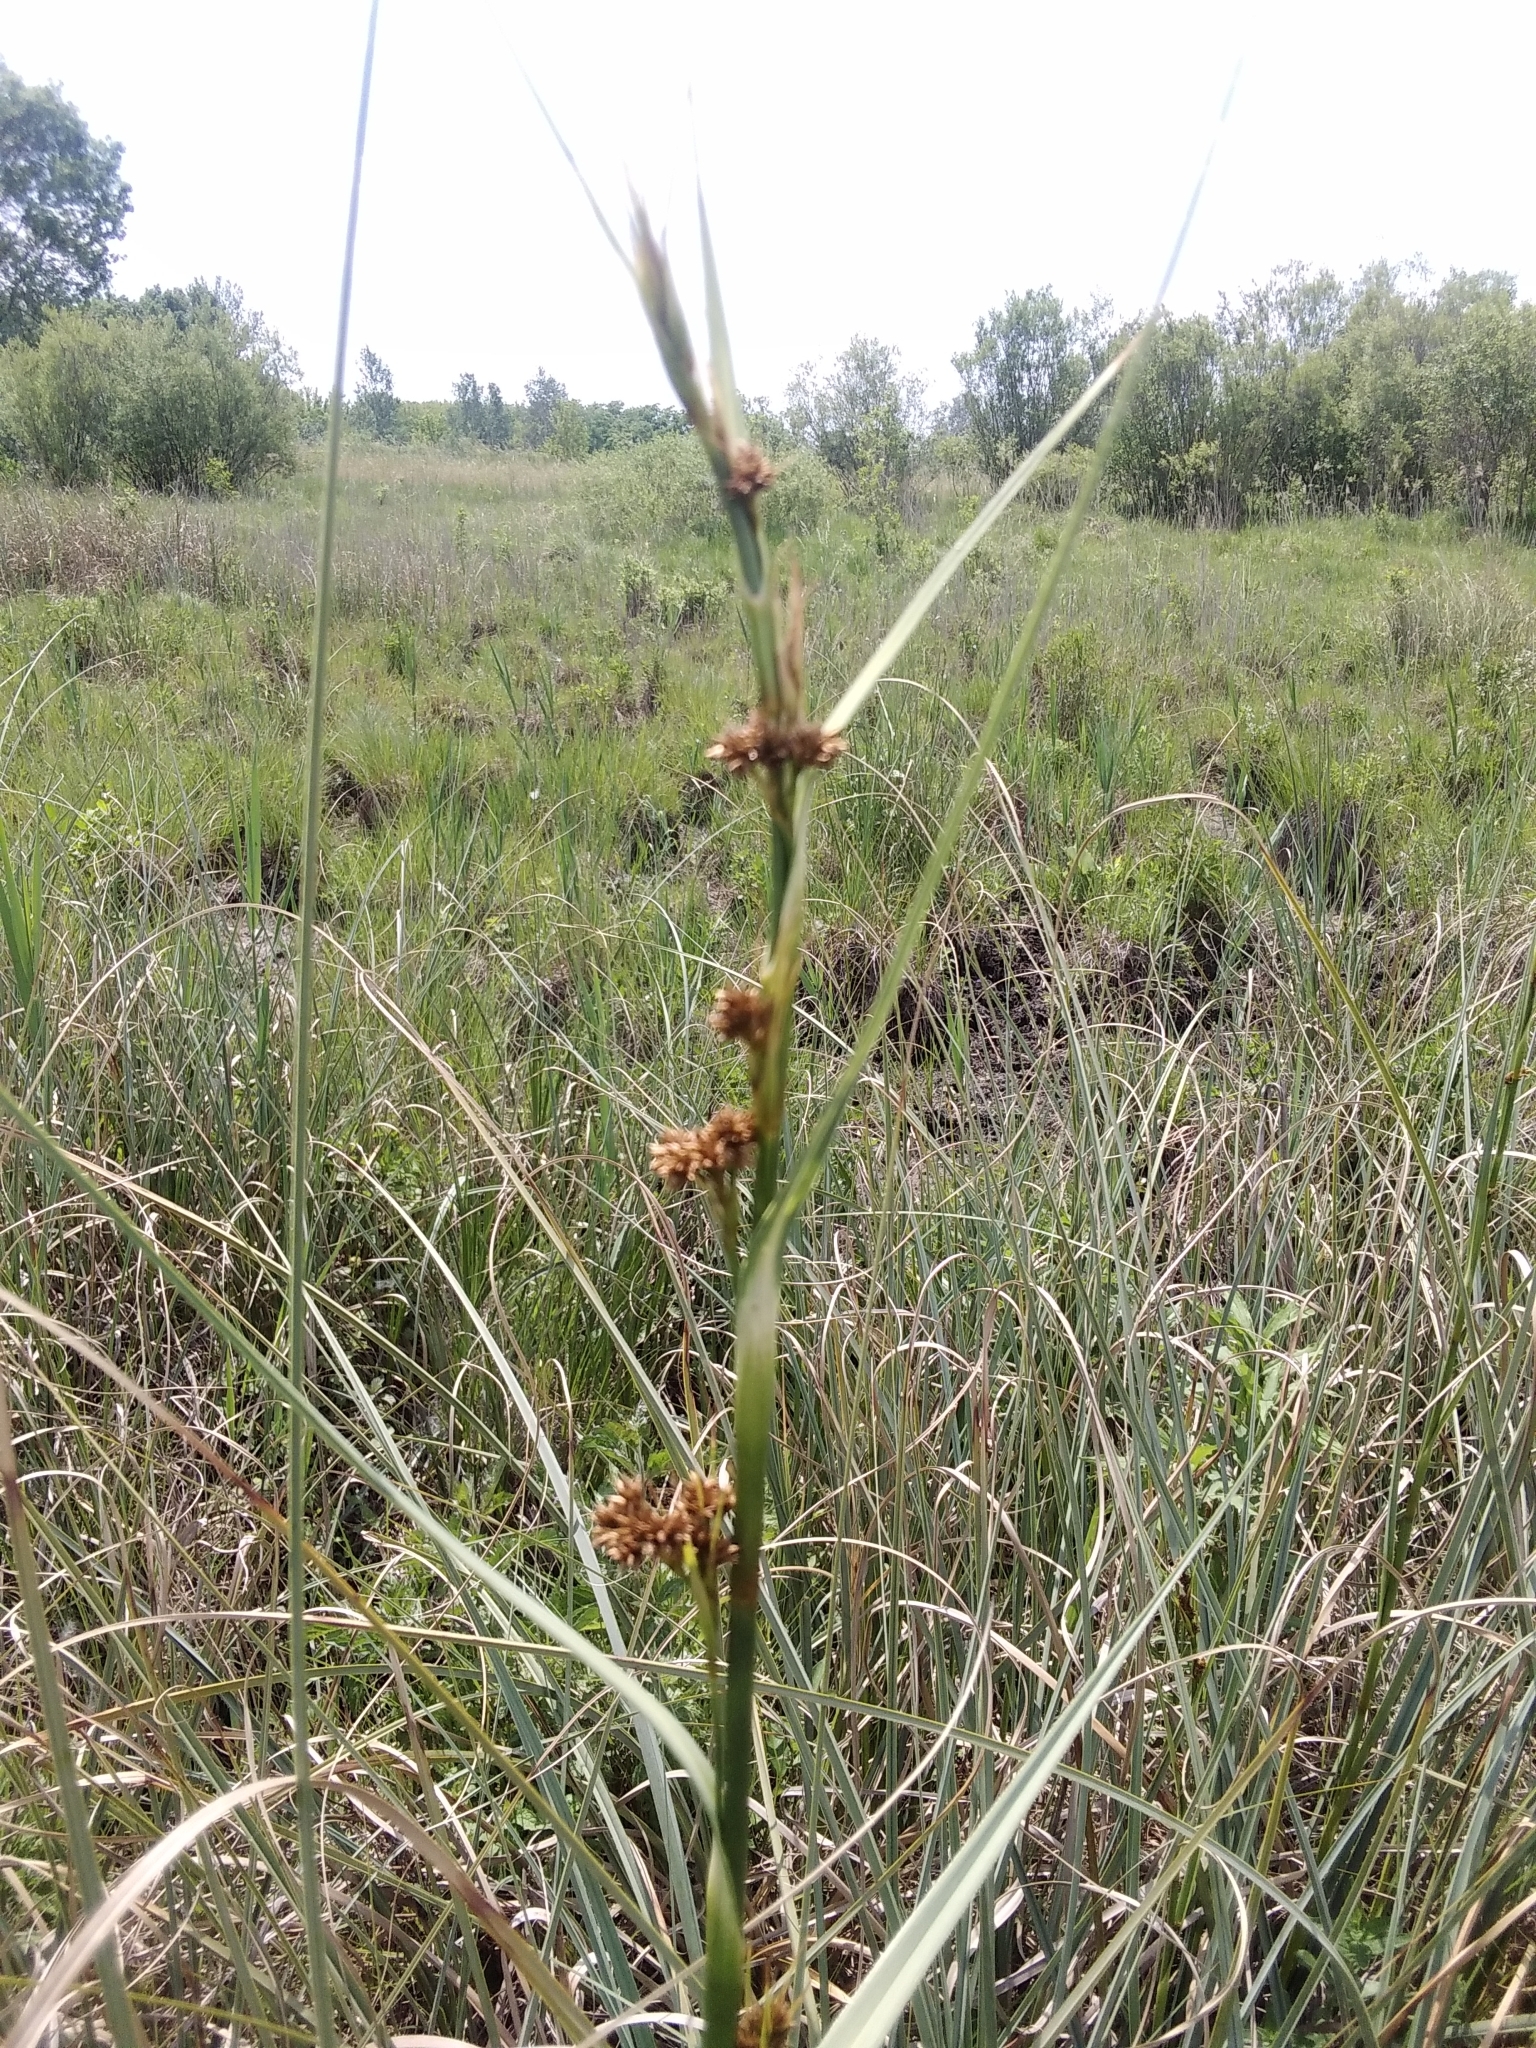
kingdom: Plantae
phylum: Tracheophyta
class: Liliopsida
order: Poales
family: Cyperaceae
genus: Cladium
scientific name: Cladium mariscus
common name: Great fen-sedge
